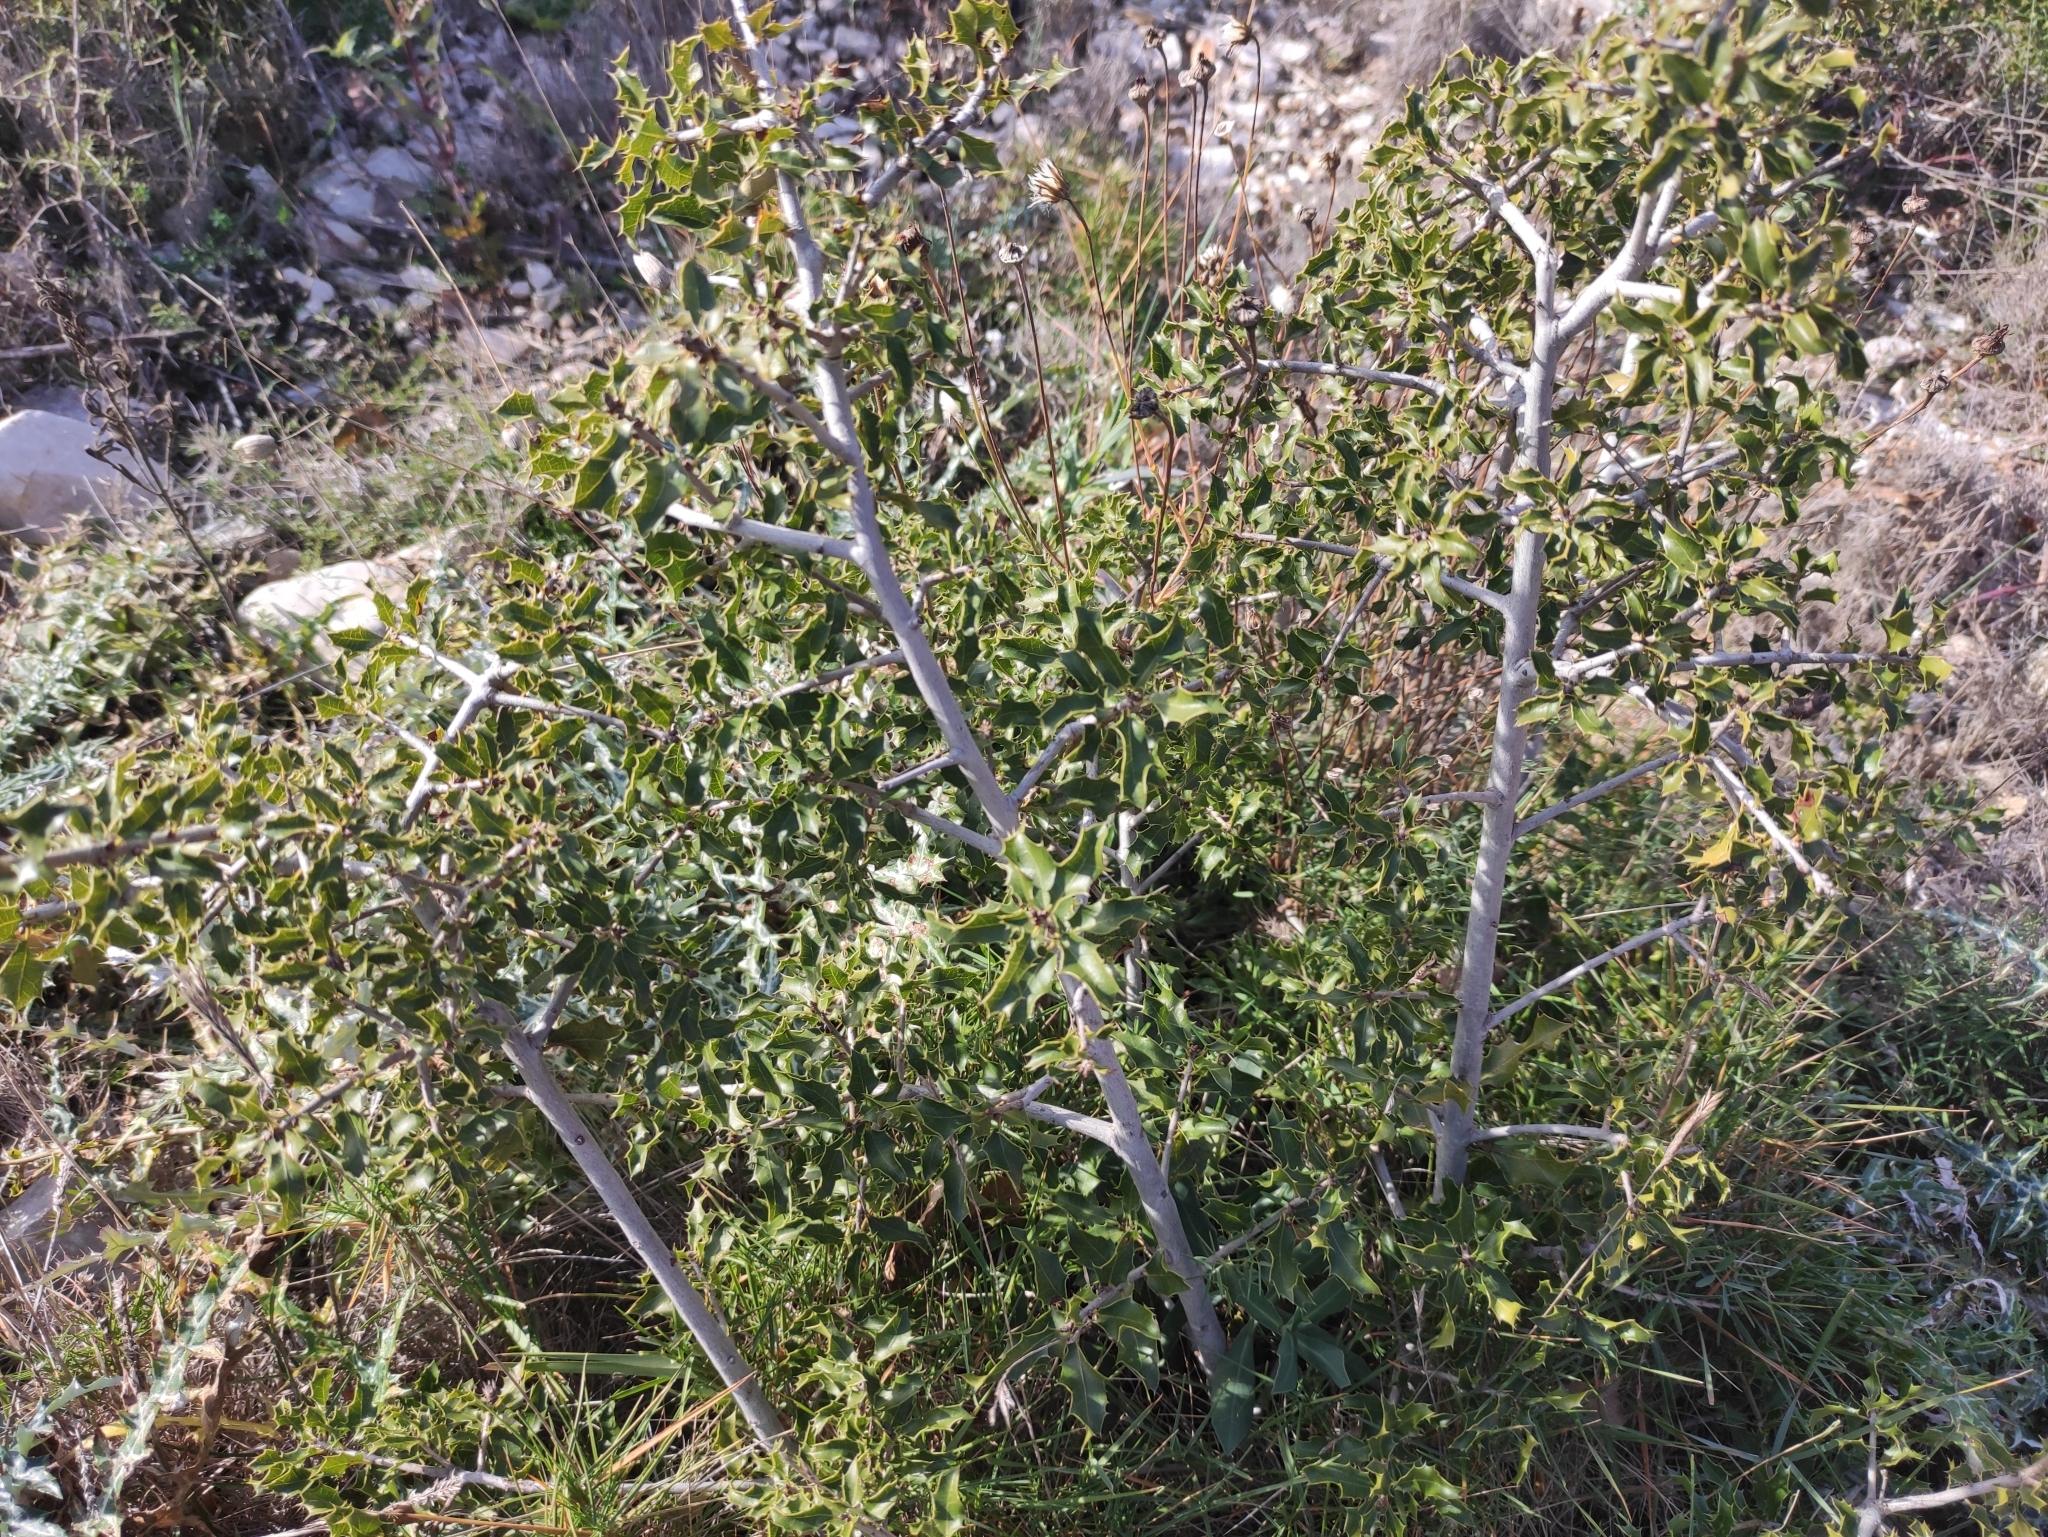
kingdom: Plantae
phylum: Tracheophyta
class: Magnoliopsida
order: Fagales
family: Fagaceae
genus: Quercus
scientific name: Quercus coccifera
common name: Kermes oak
